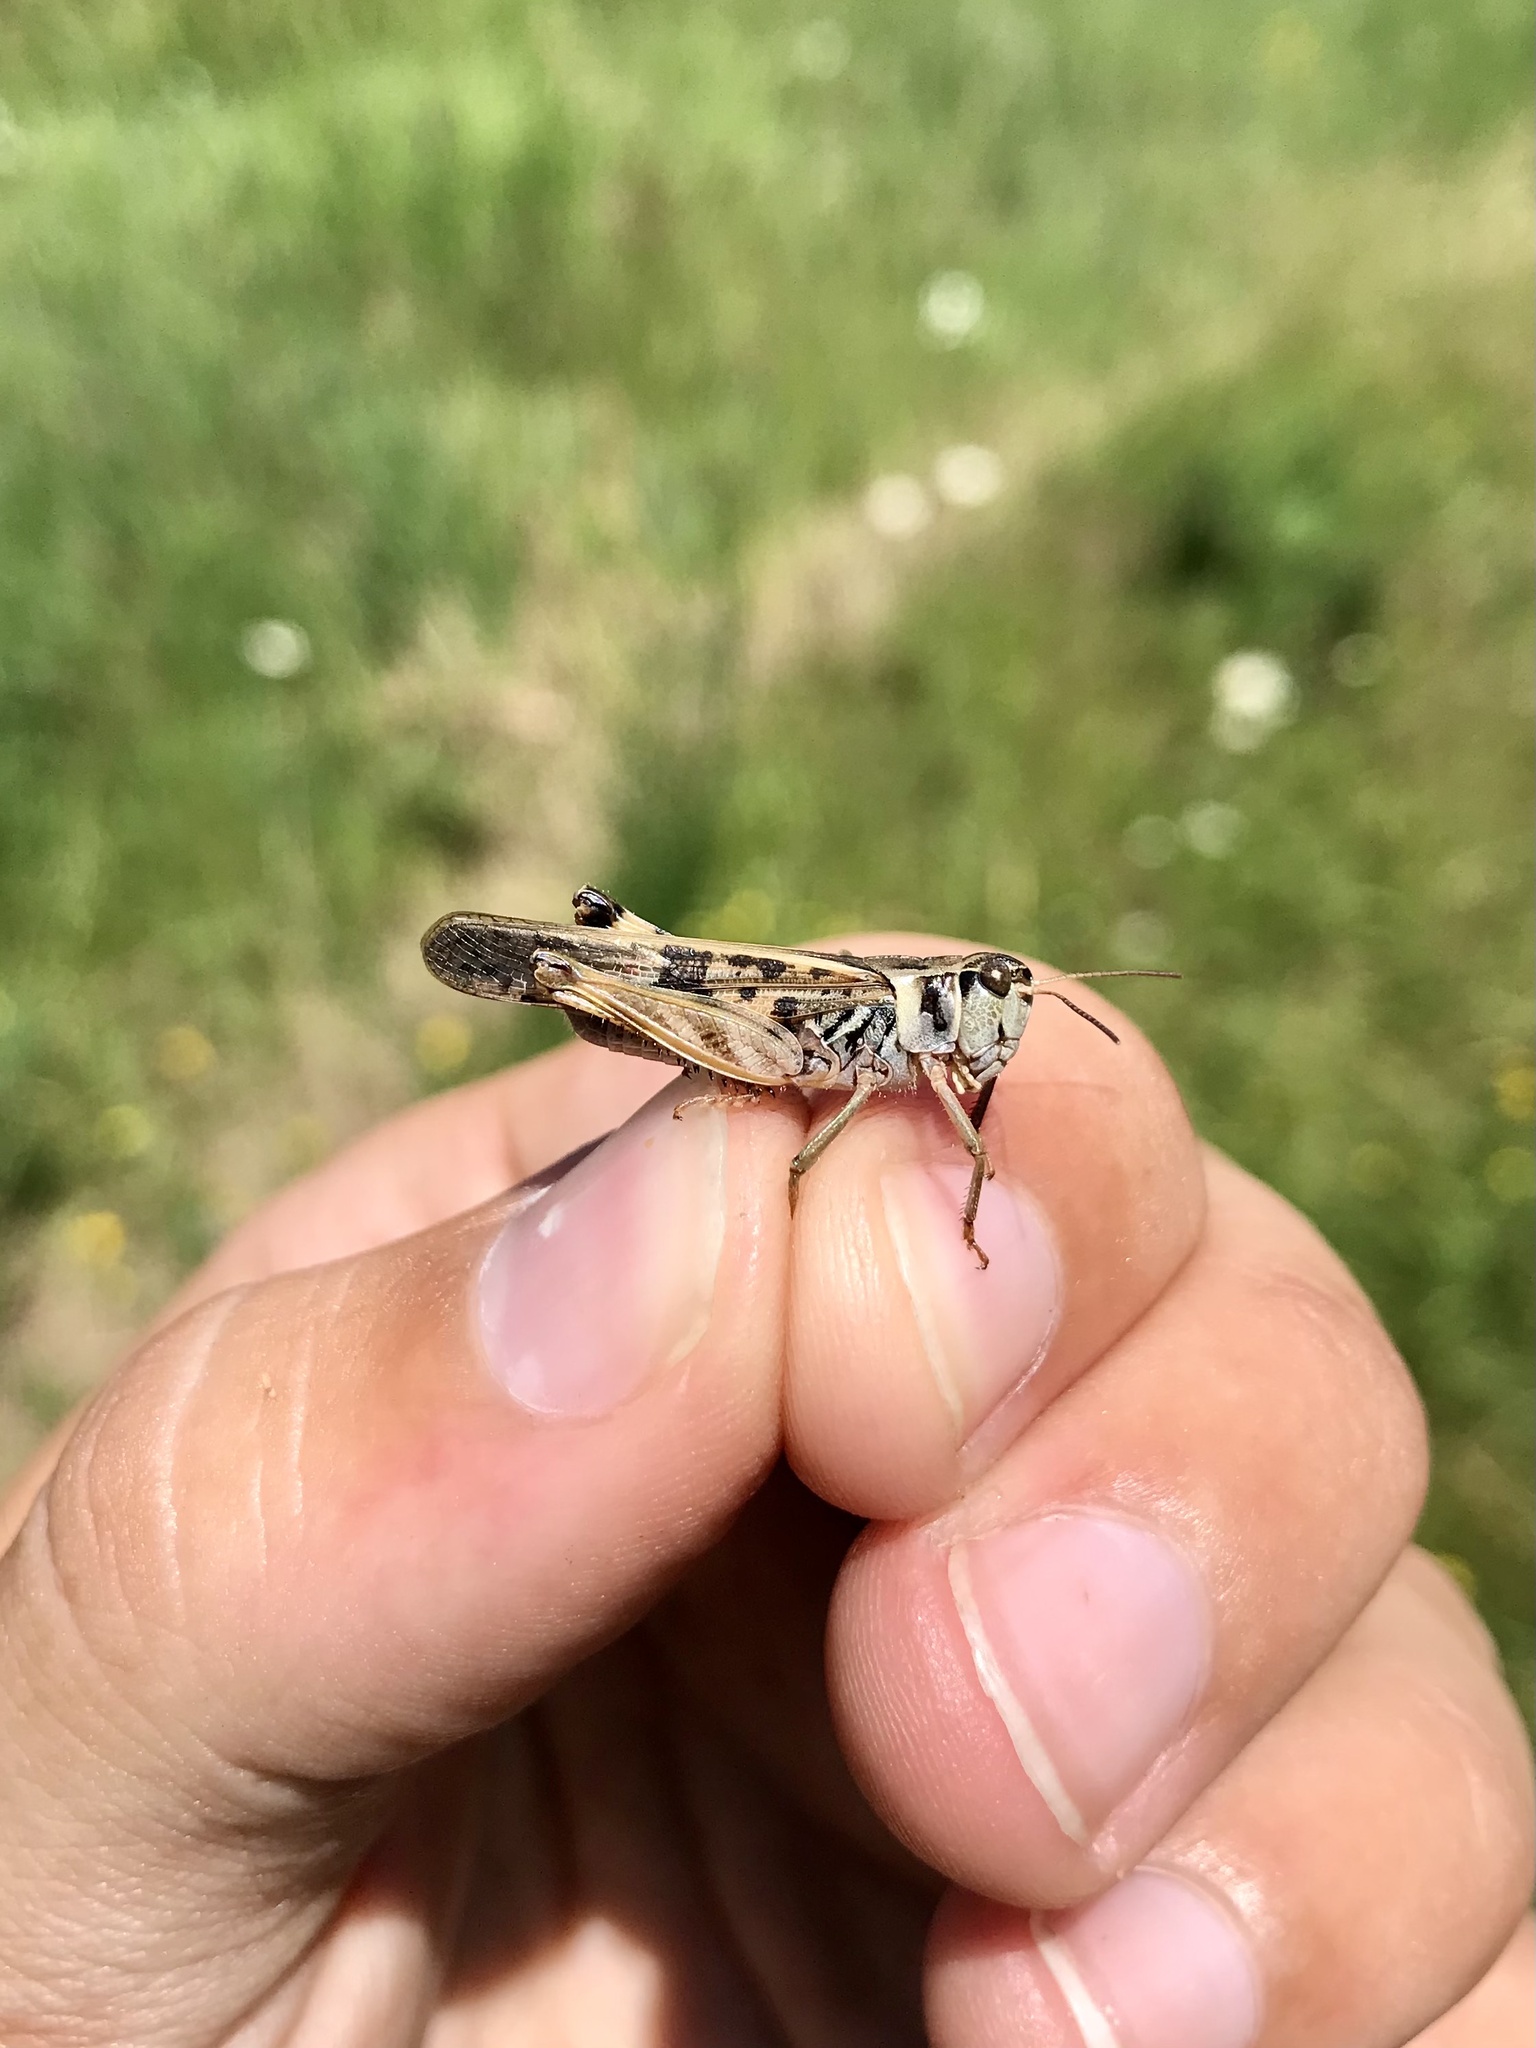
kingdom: Animalia
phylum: Arthropoda
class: Insecta
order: Orthoptera
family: Acrididae
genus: Camnula
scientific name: Camnula pellucida
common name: Clear-winged grasshopper
